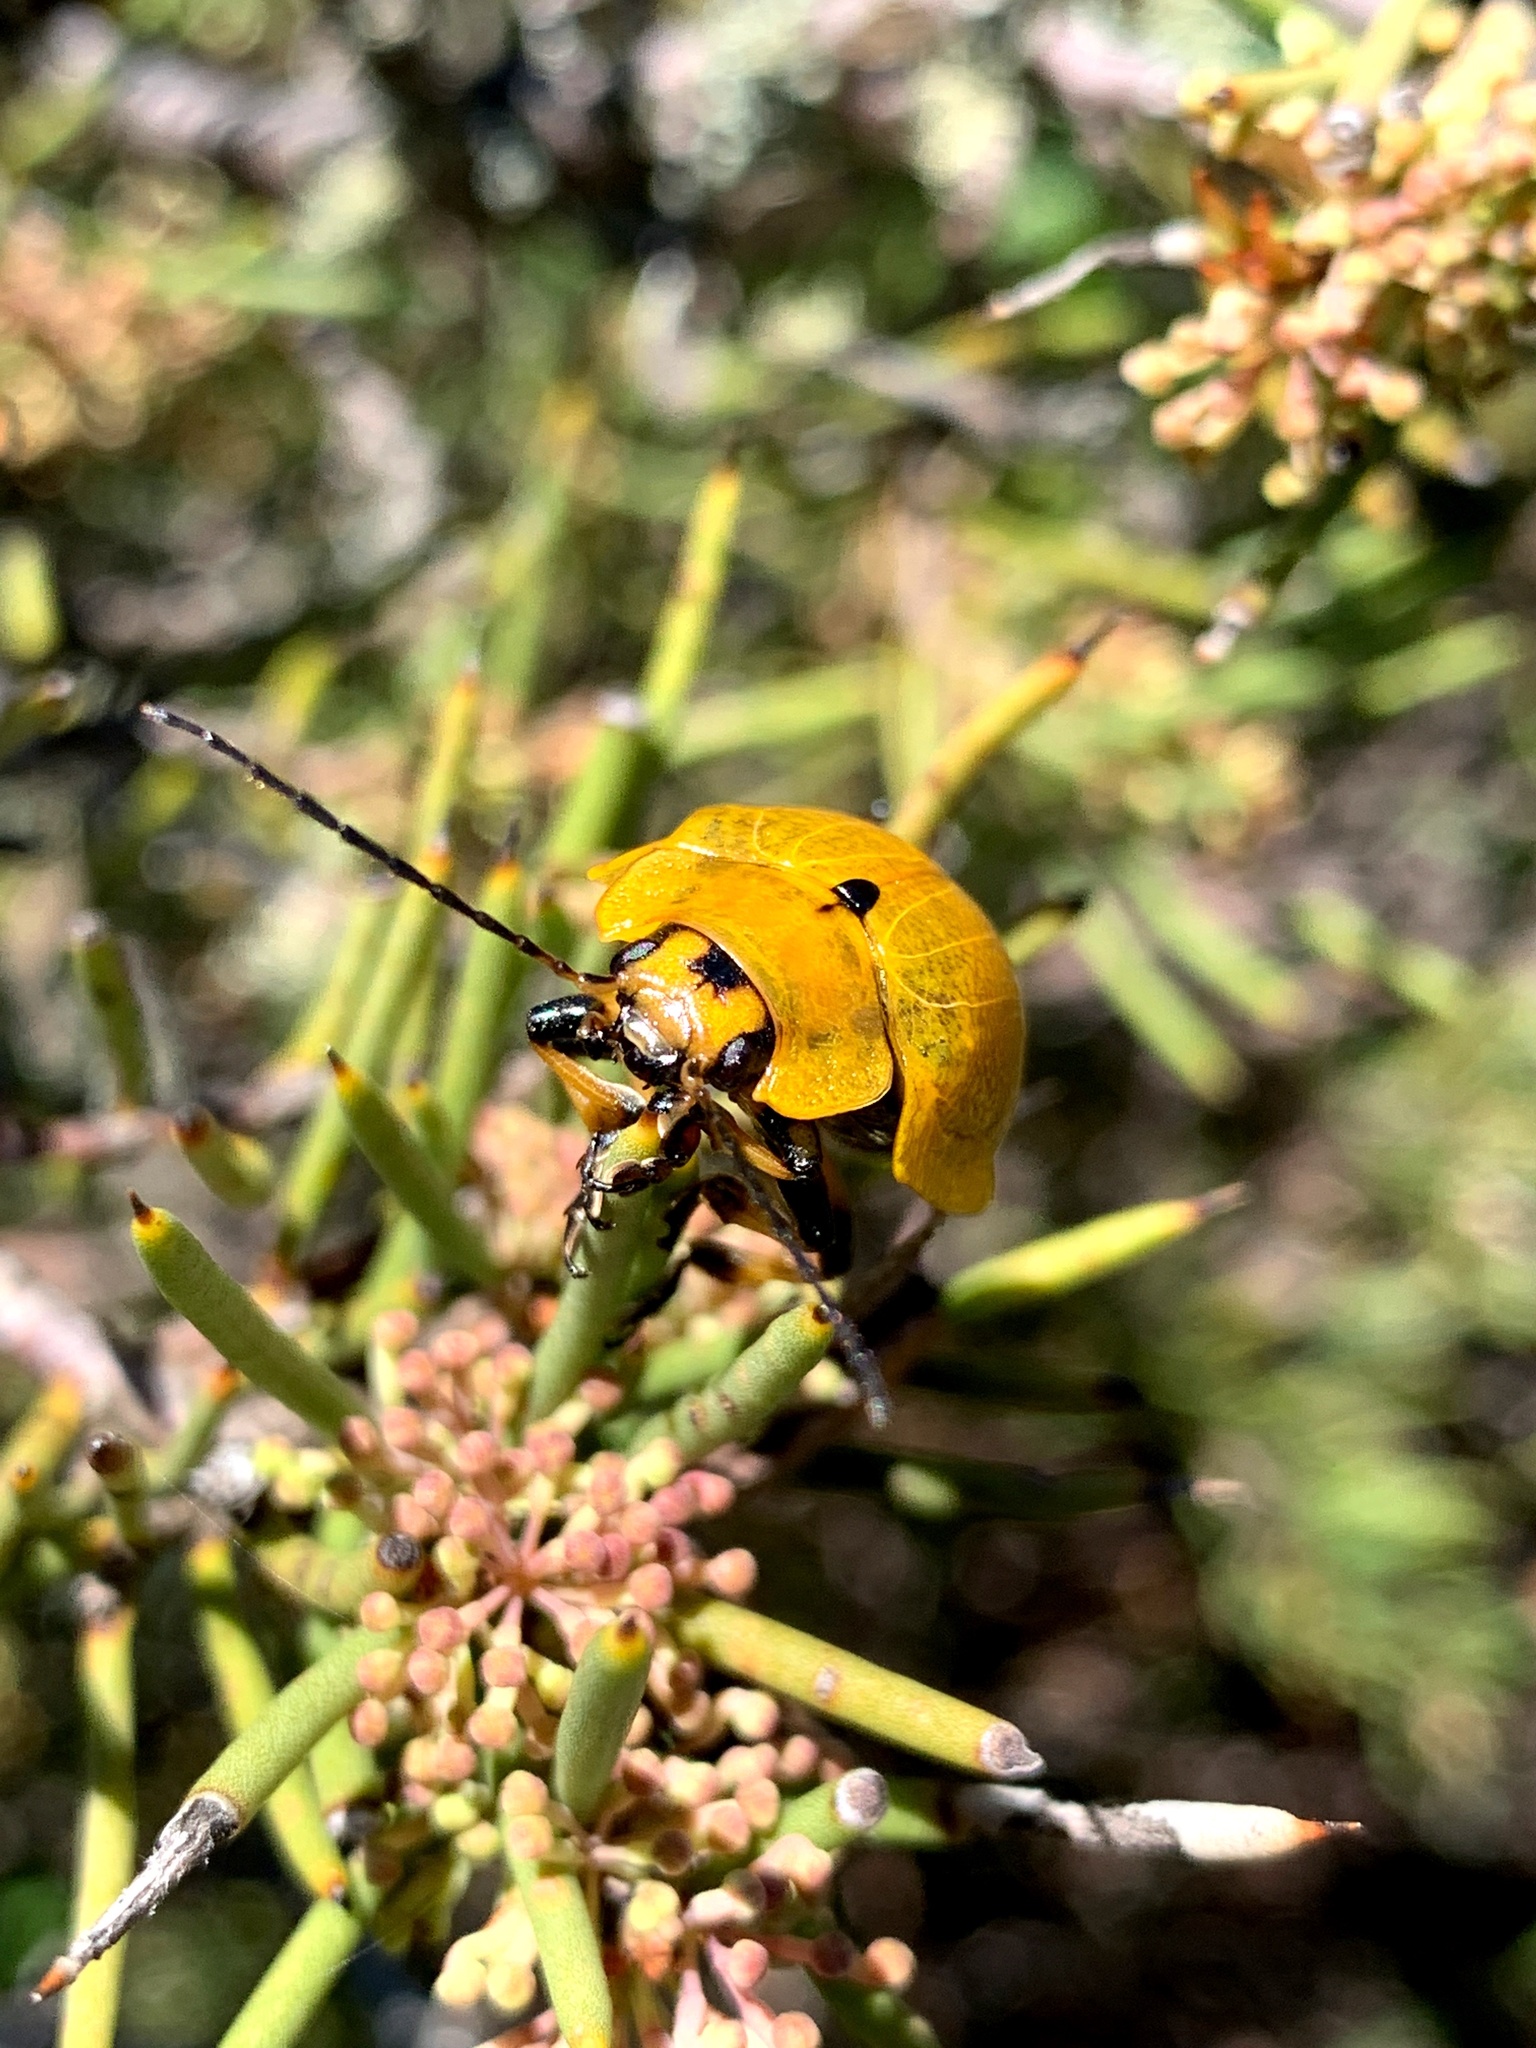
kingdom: Animalia
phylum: Arthropoda
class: Insecta
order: Coleoptera
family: Chrysomelidae
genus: Paropsis
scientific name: Paropsis
